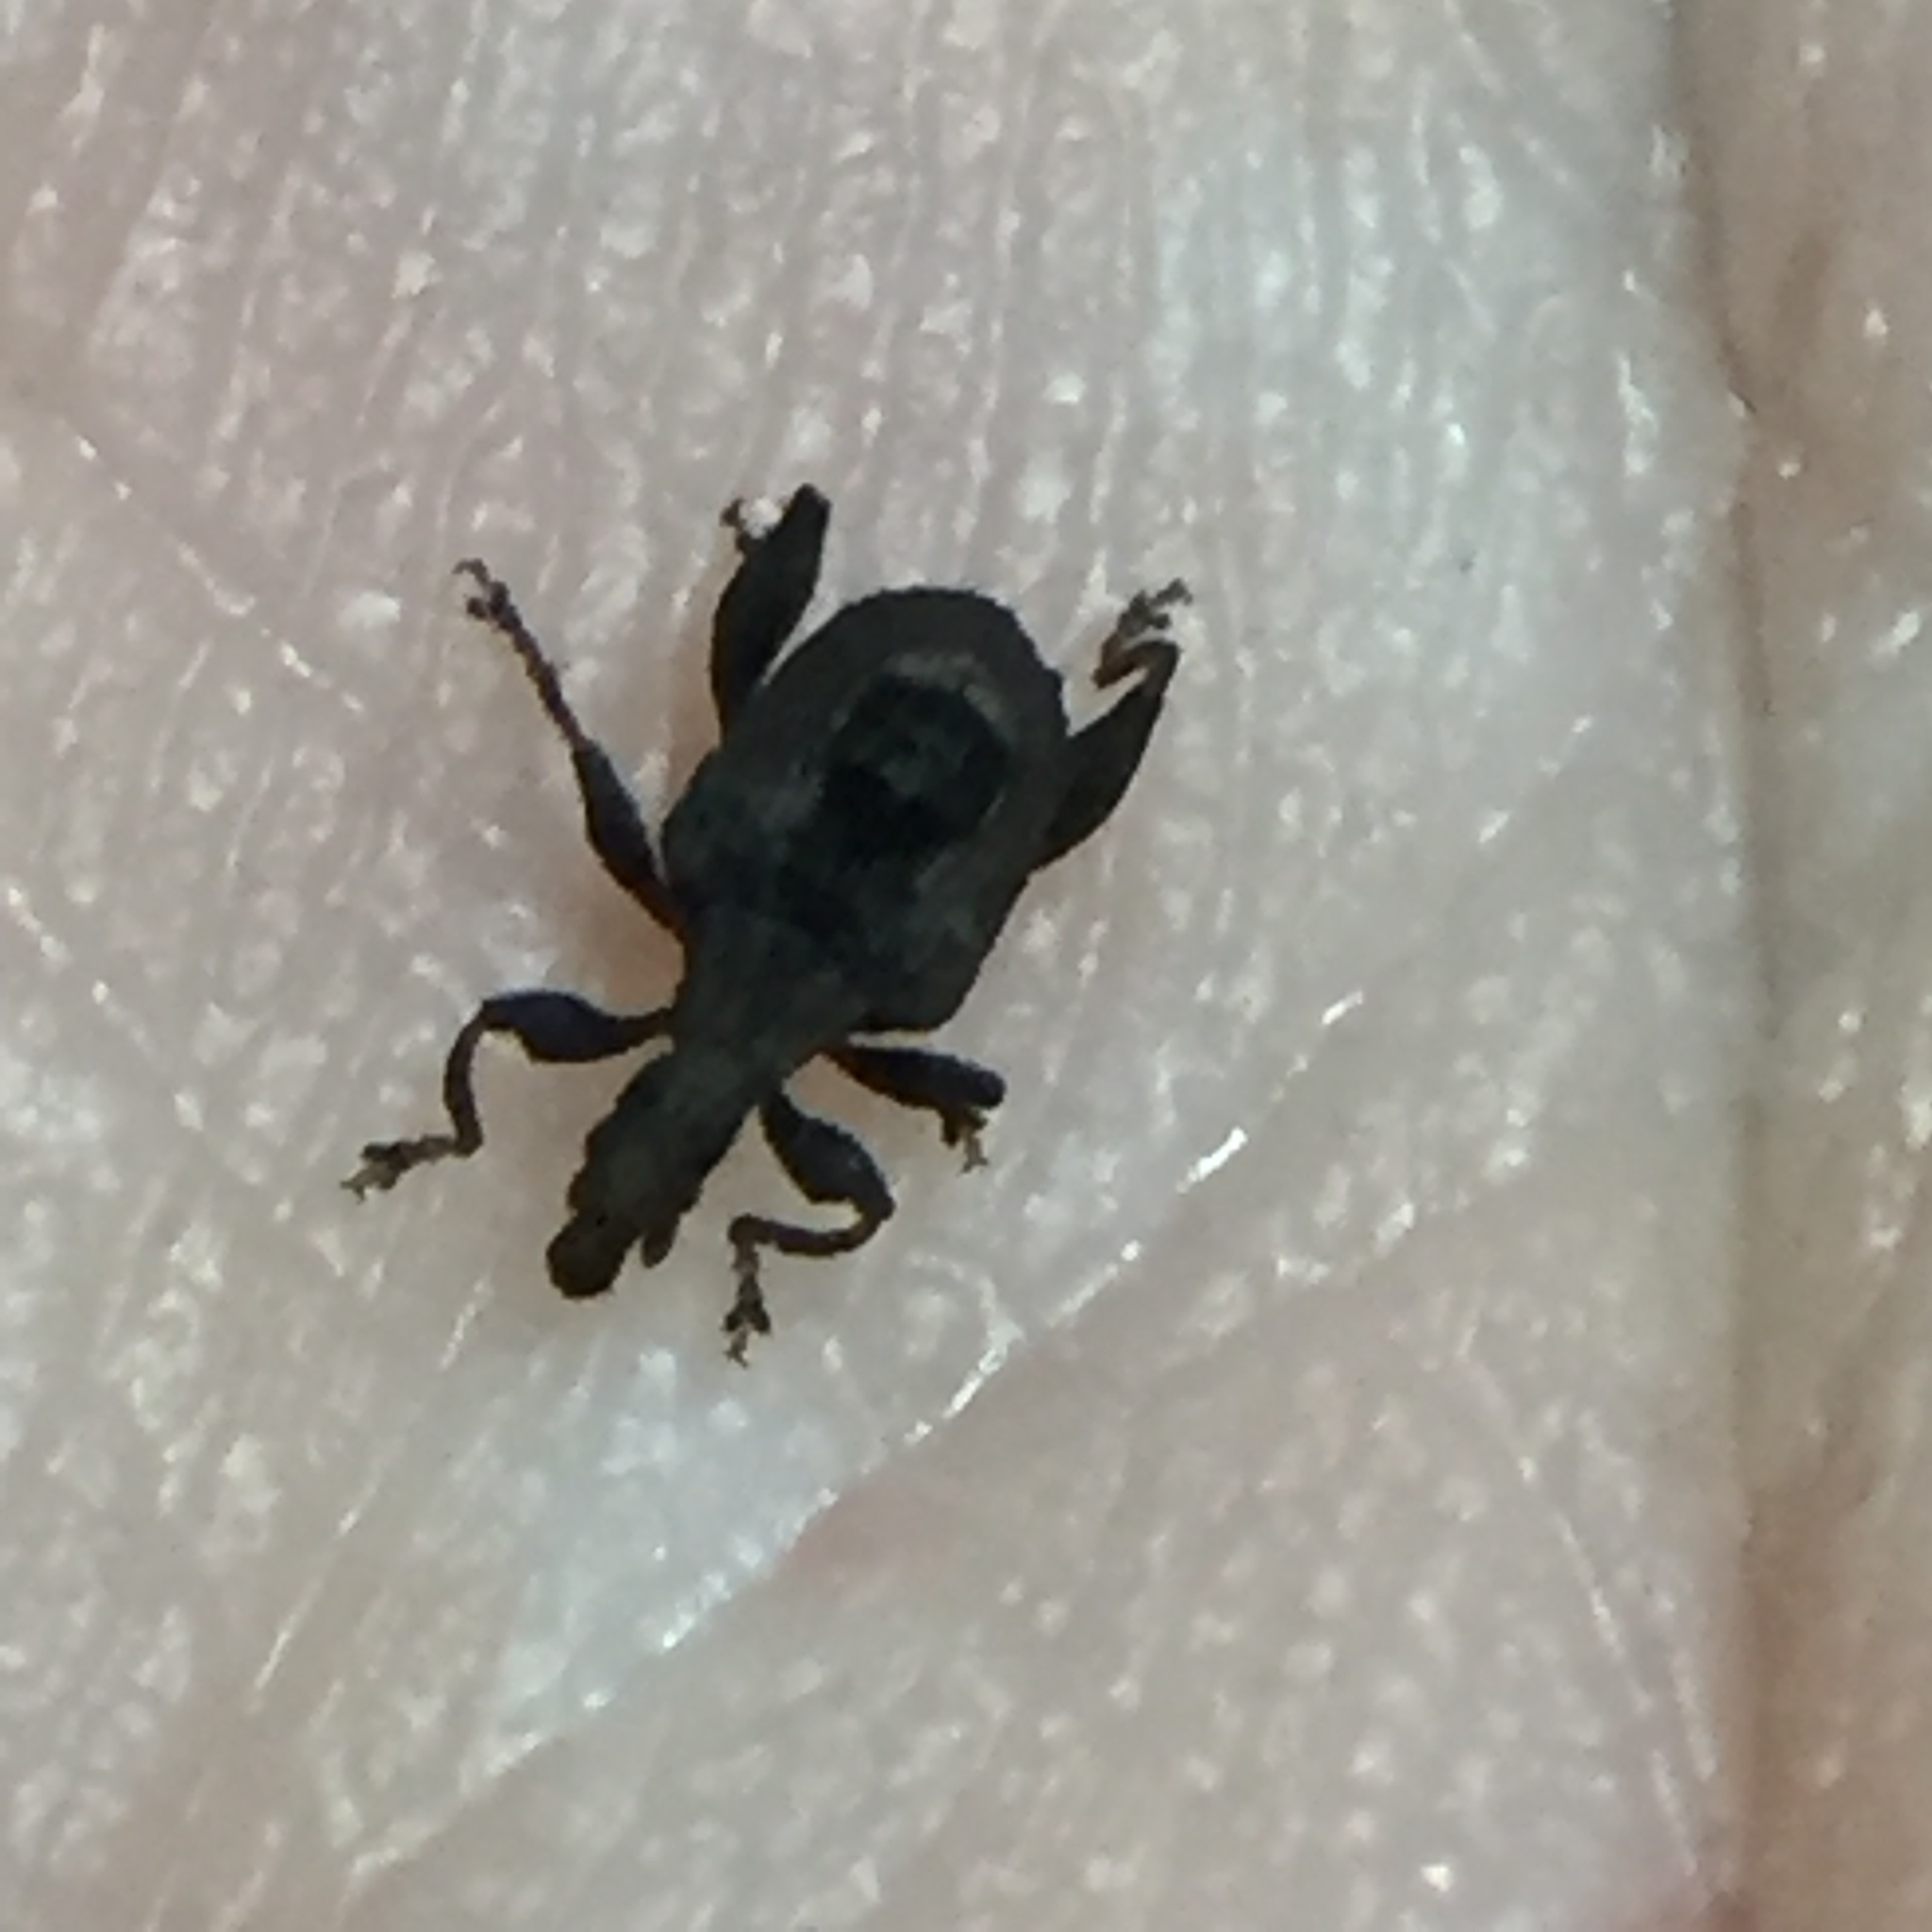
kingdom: Animalia
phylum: Arthropoda
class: Insecta
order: Coleoptera
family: Curculionidae
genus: Stephanorrhynchus
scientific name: Stephanorrhynchus crassus
